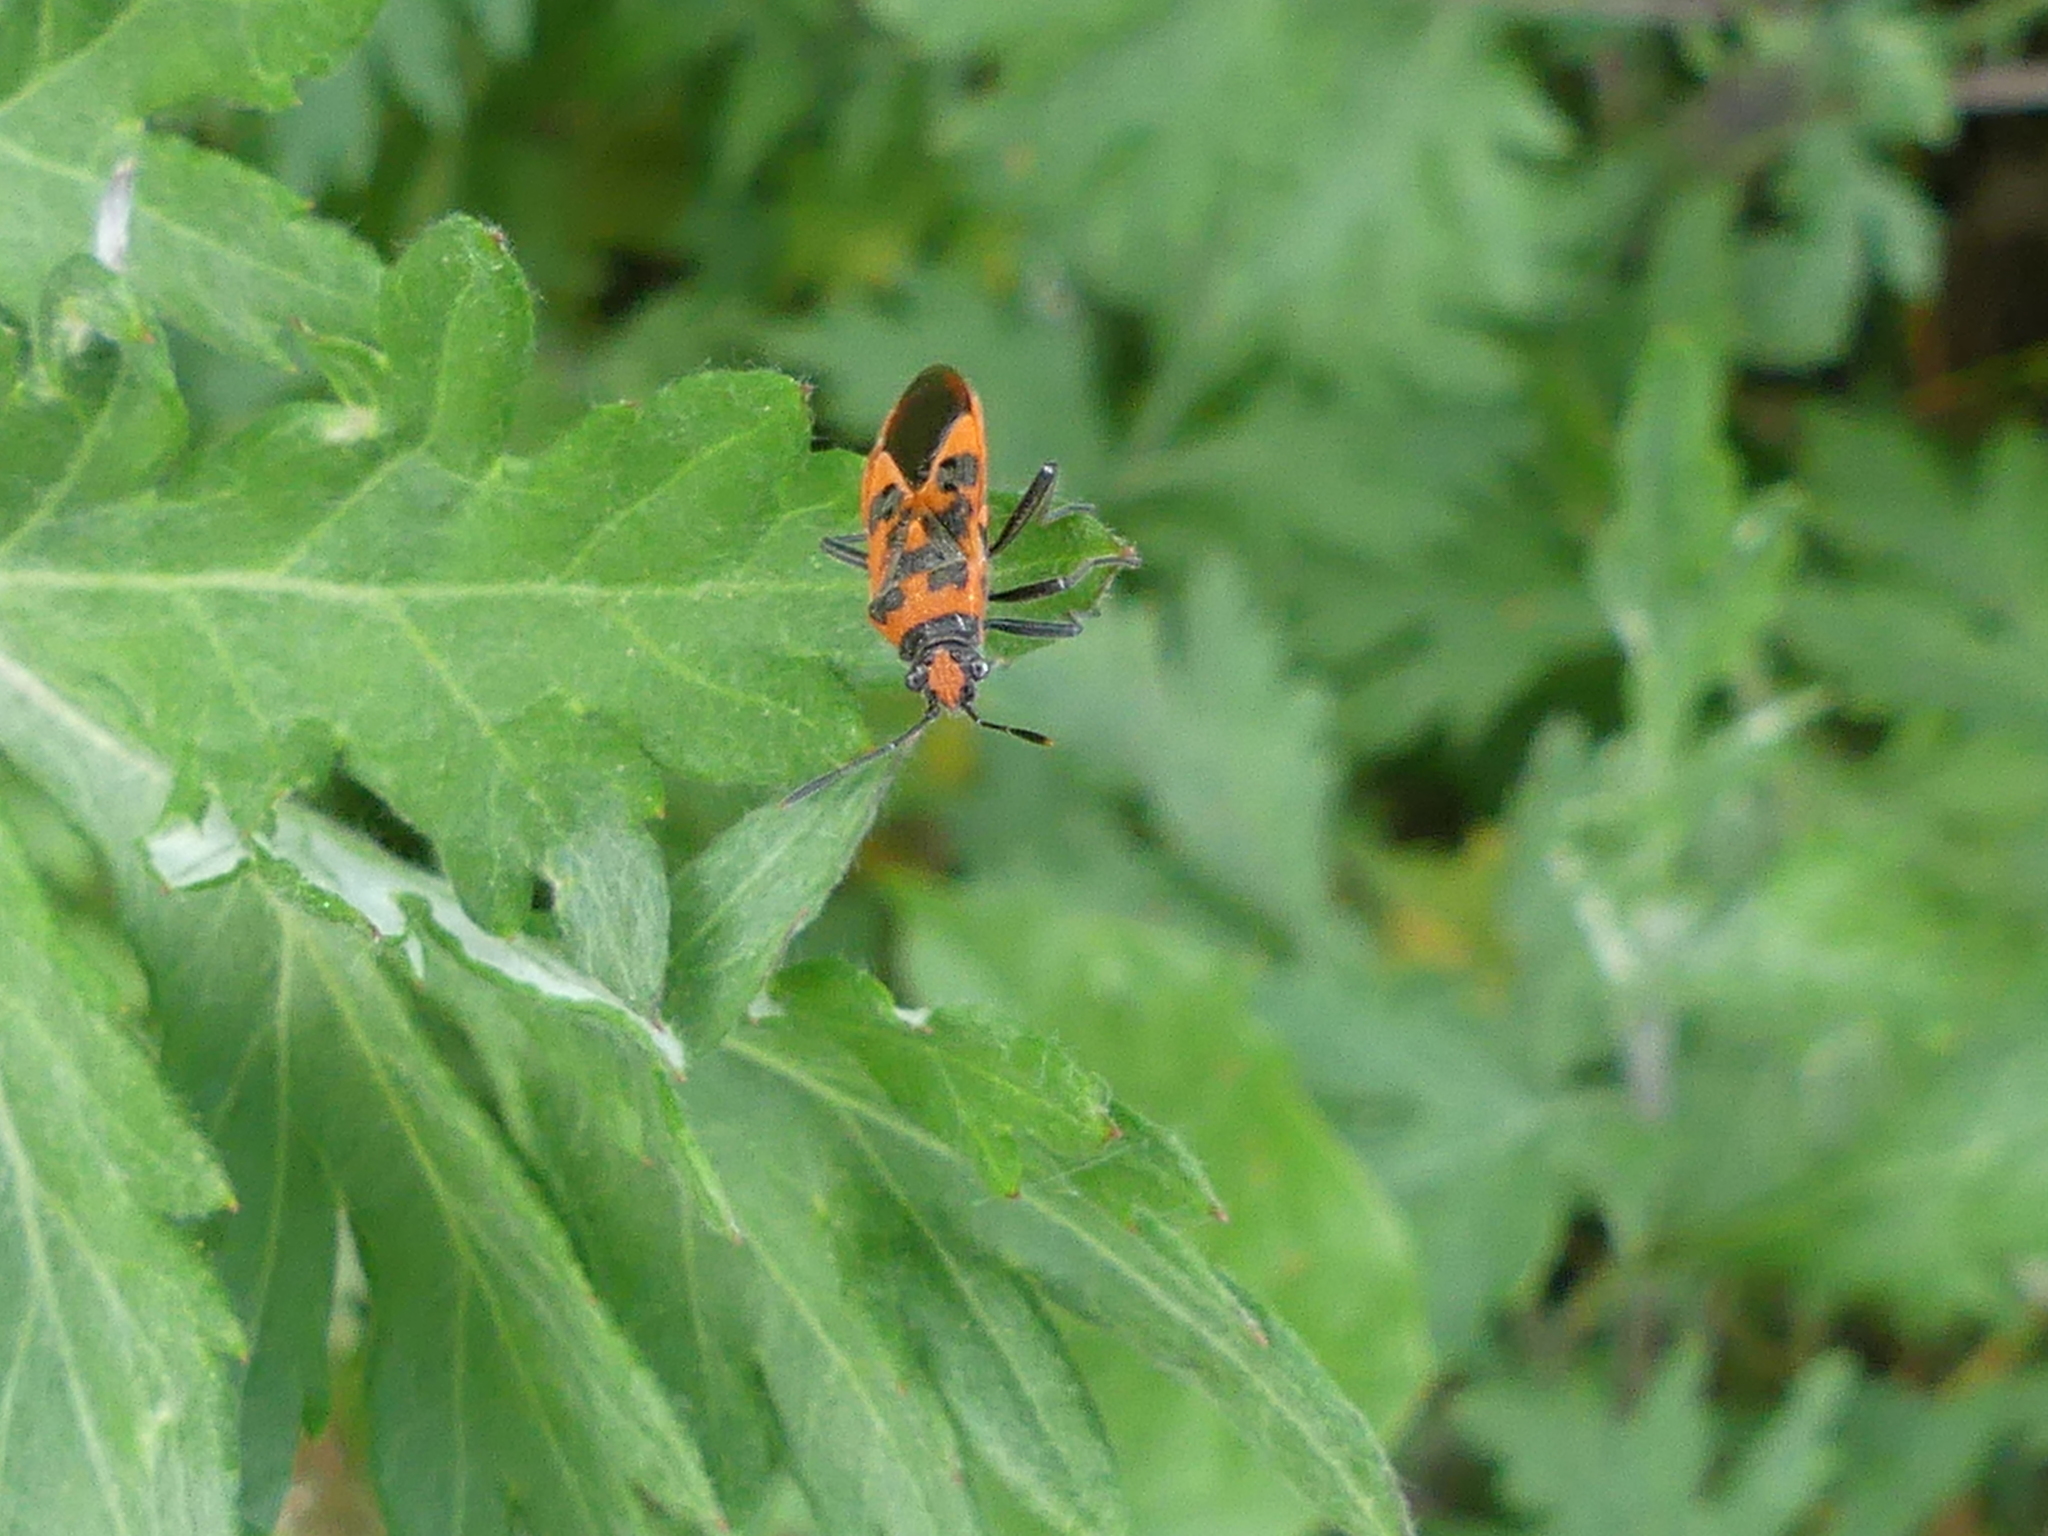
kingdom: Animalia
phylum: Arthropoda
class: Insecta
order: Hemiptera
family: Rhopalidae
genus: Corizus
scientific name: Corizus hyoscyami
